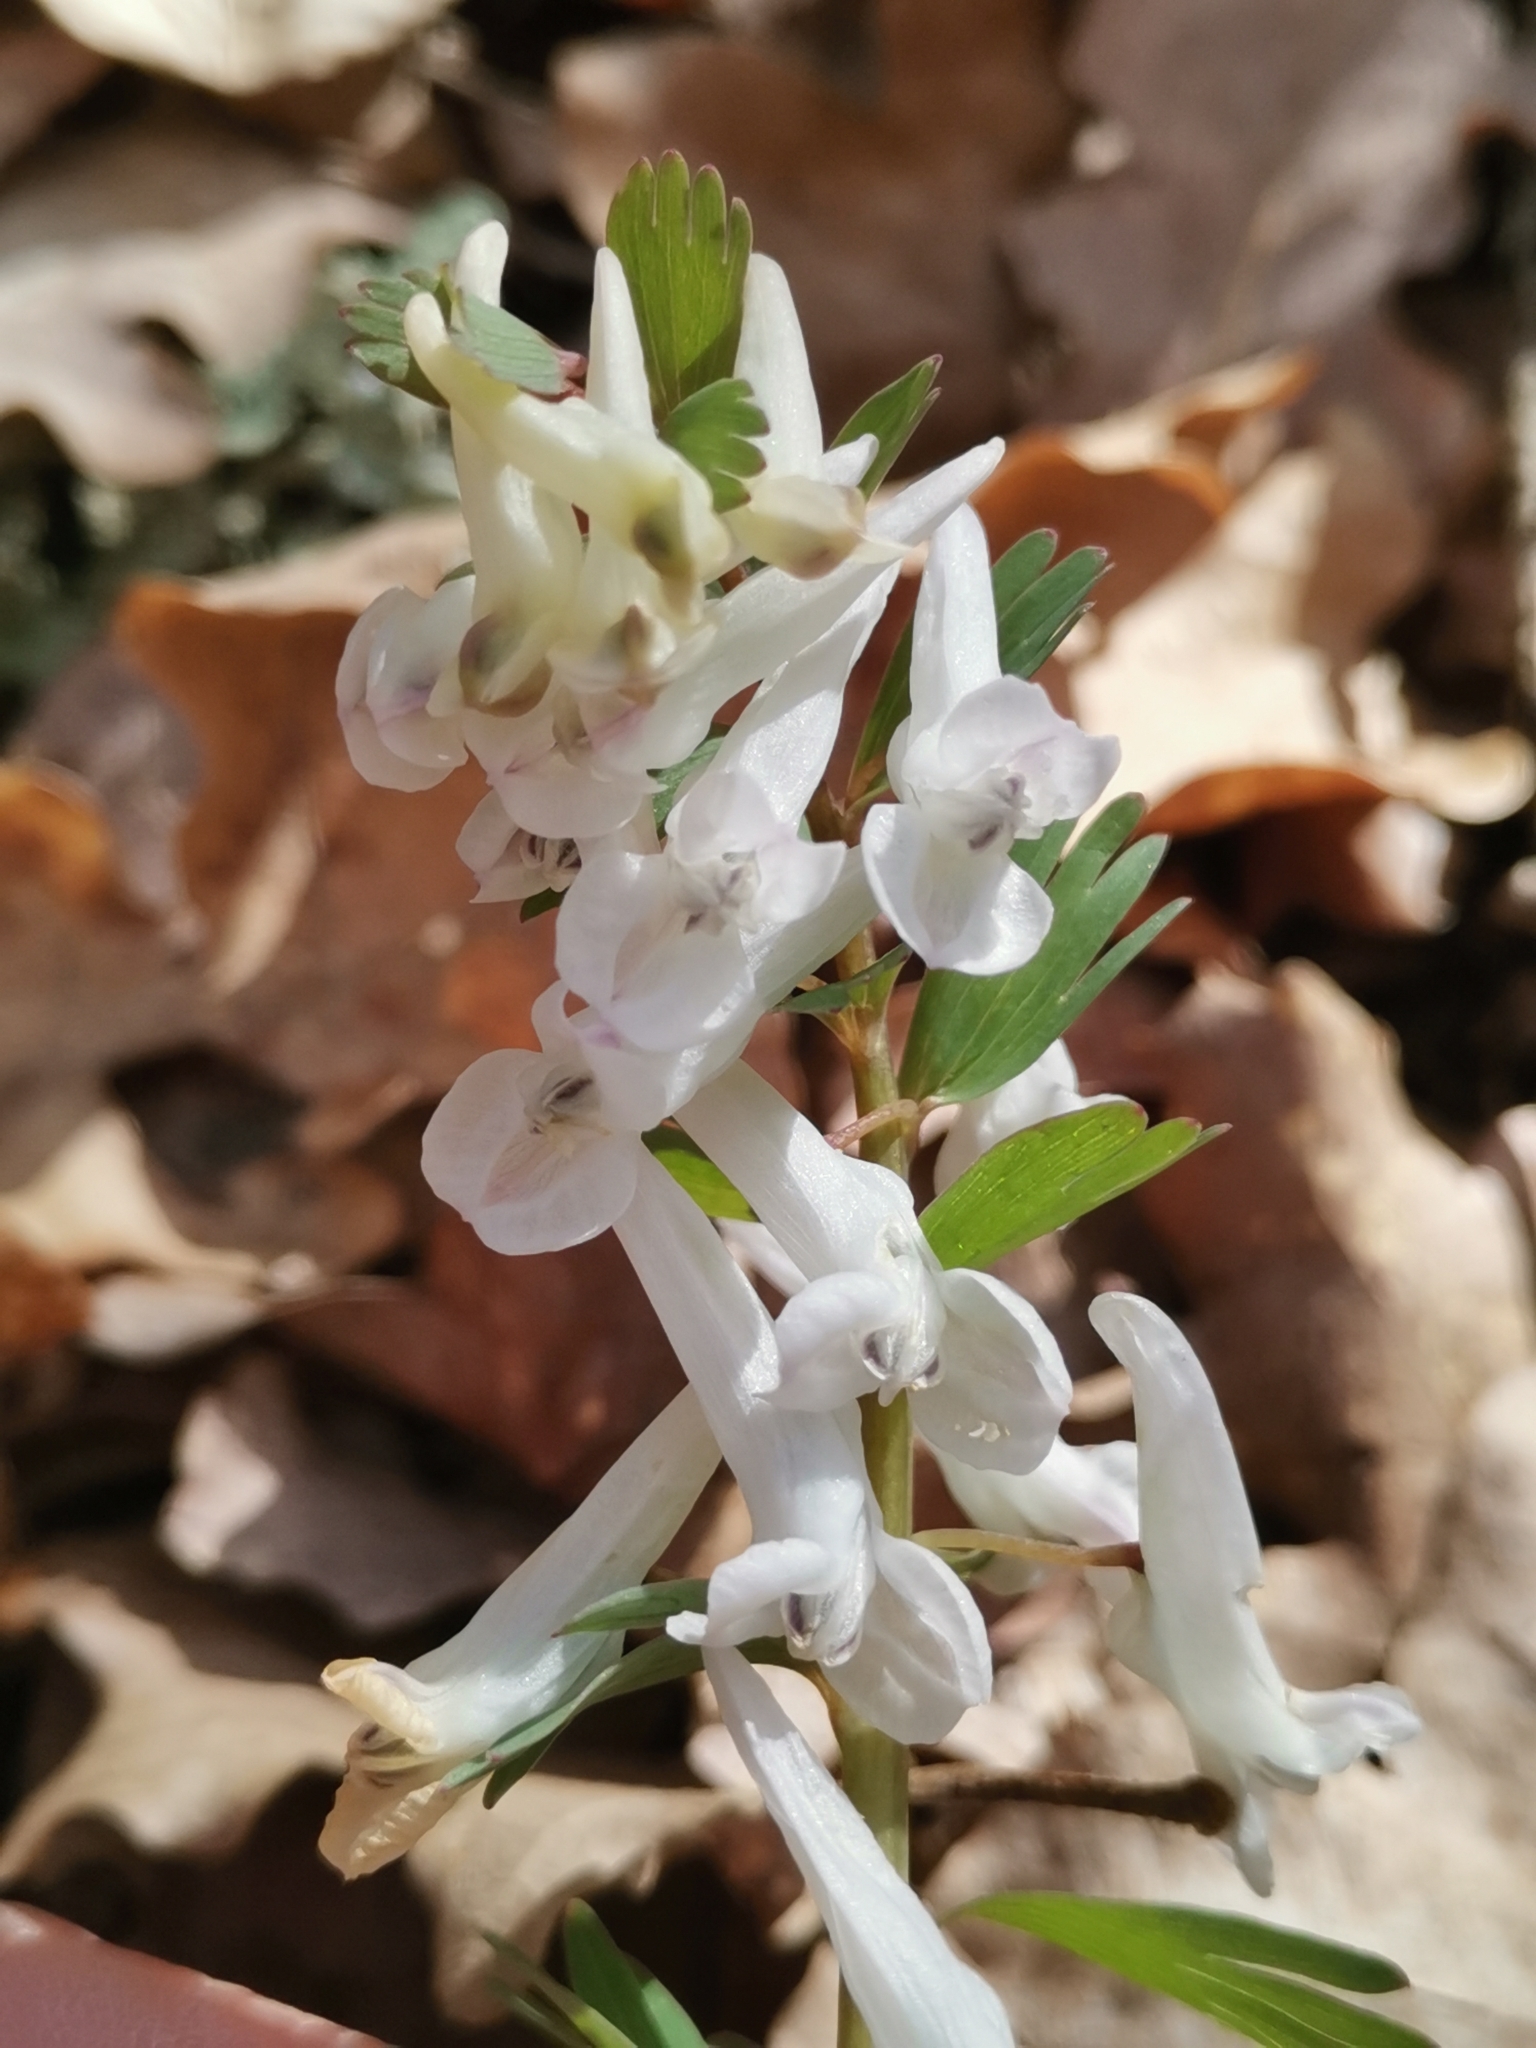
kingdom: Plantae
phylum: Tracheophyta
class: Magnoliopsida
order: Ranunculales
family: Papaveraceae
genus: Corydalis
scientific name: Corydalis solida
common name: Bird-in-a-bush
